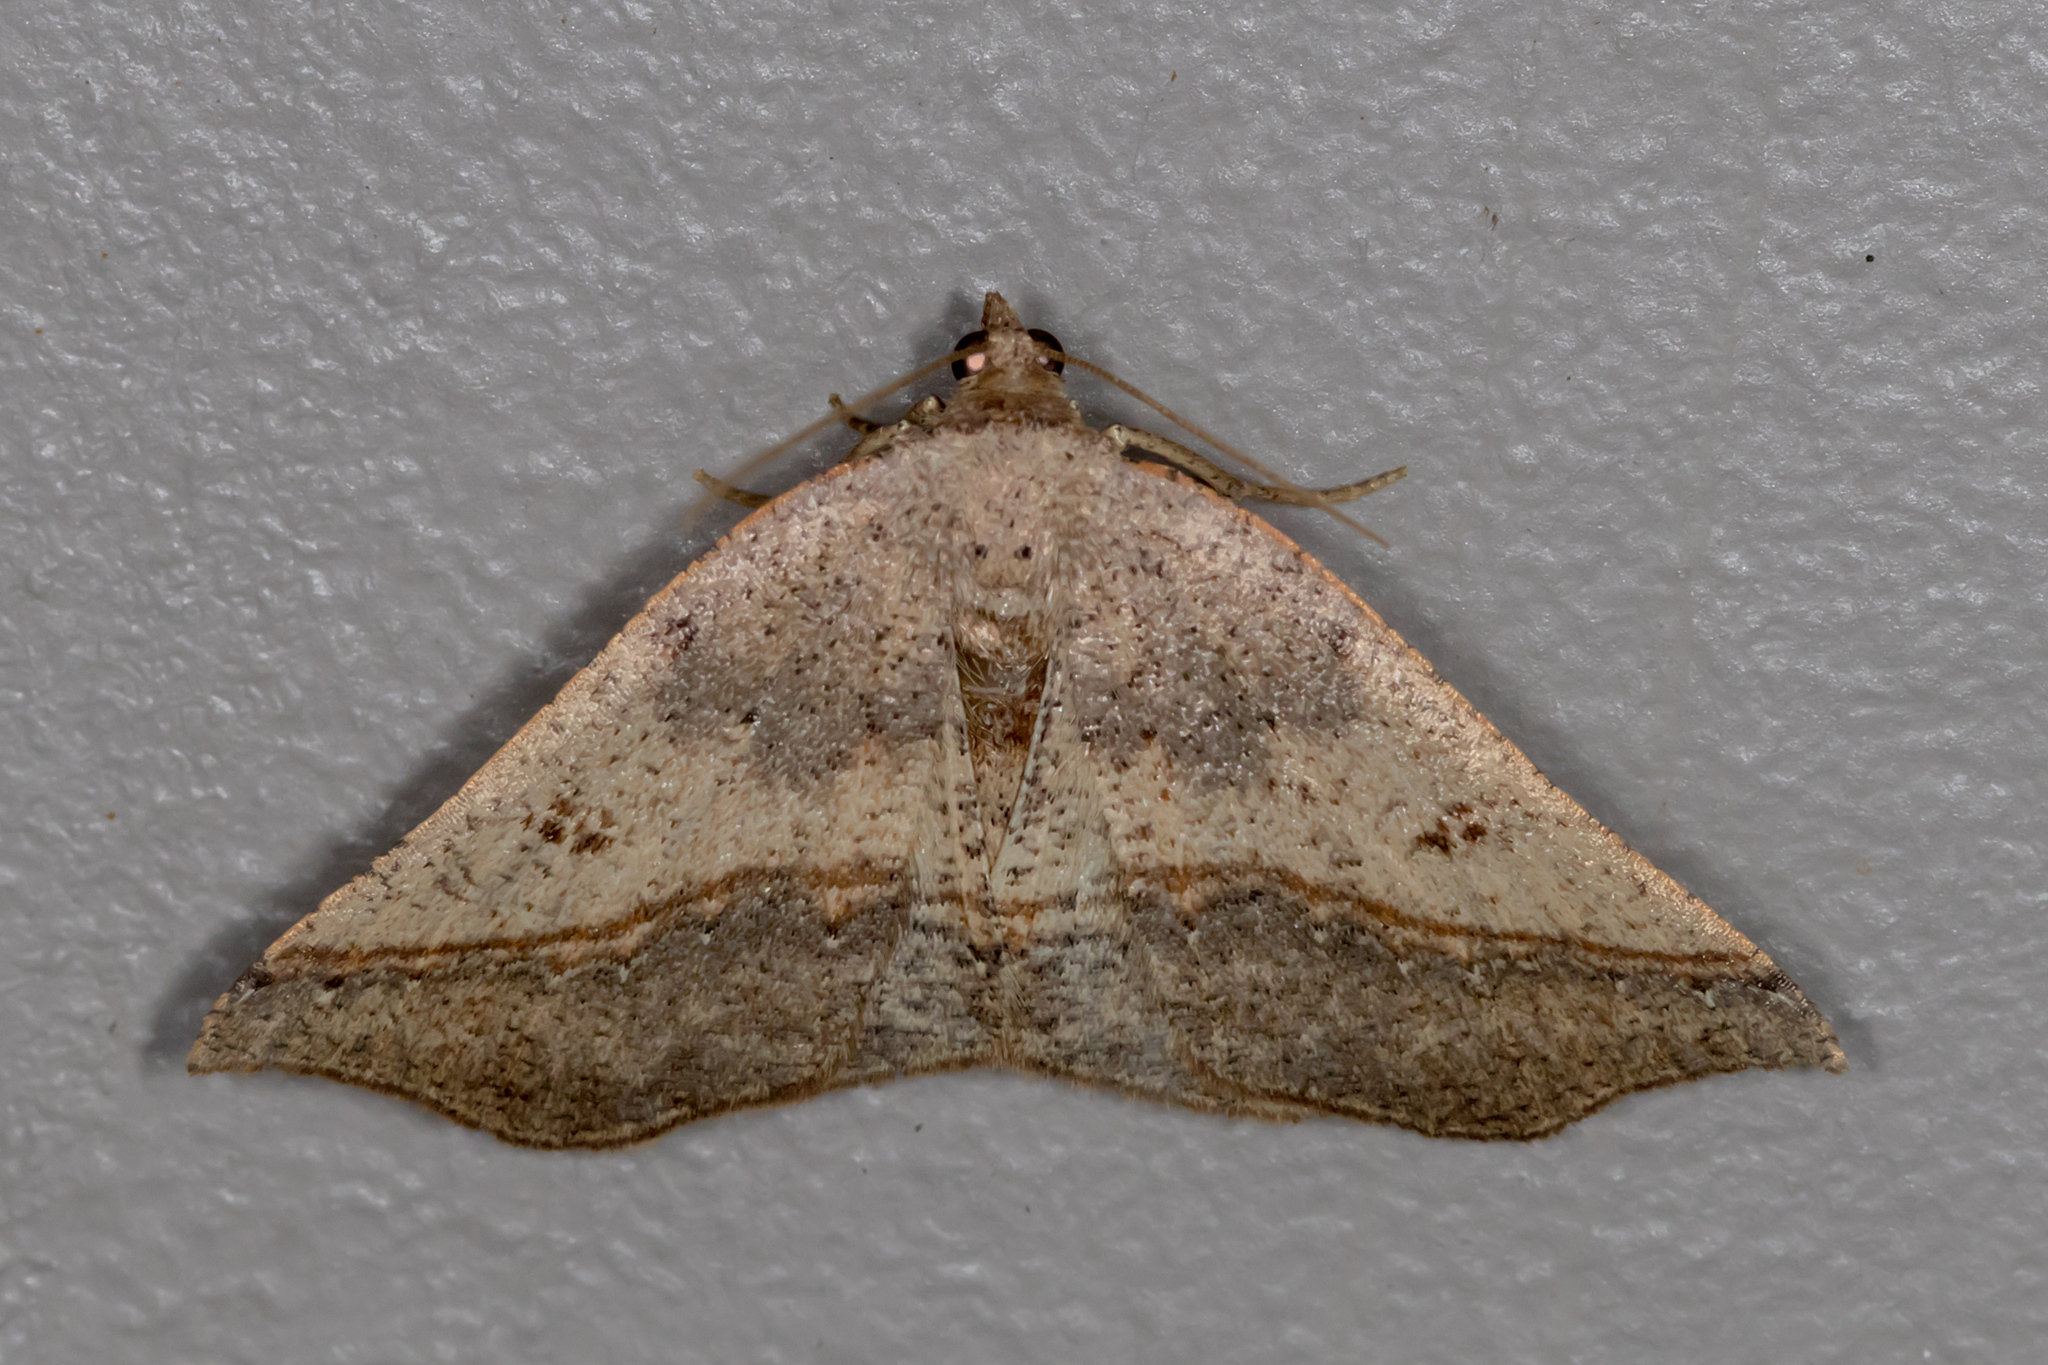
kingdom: Animalia
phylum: Arthropoda
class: Insecta
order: Lepidoptera
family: Geometridae
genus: Planolocha
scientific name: Planolocha autoptis
